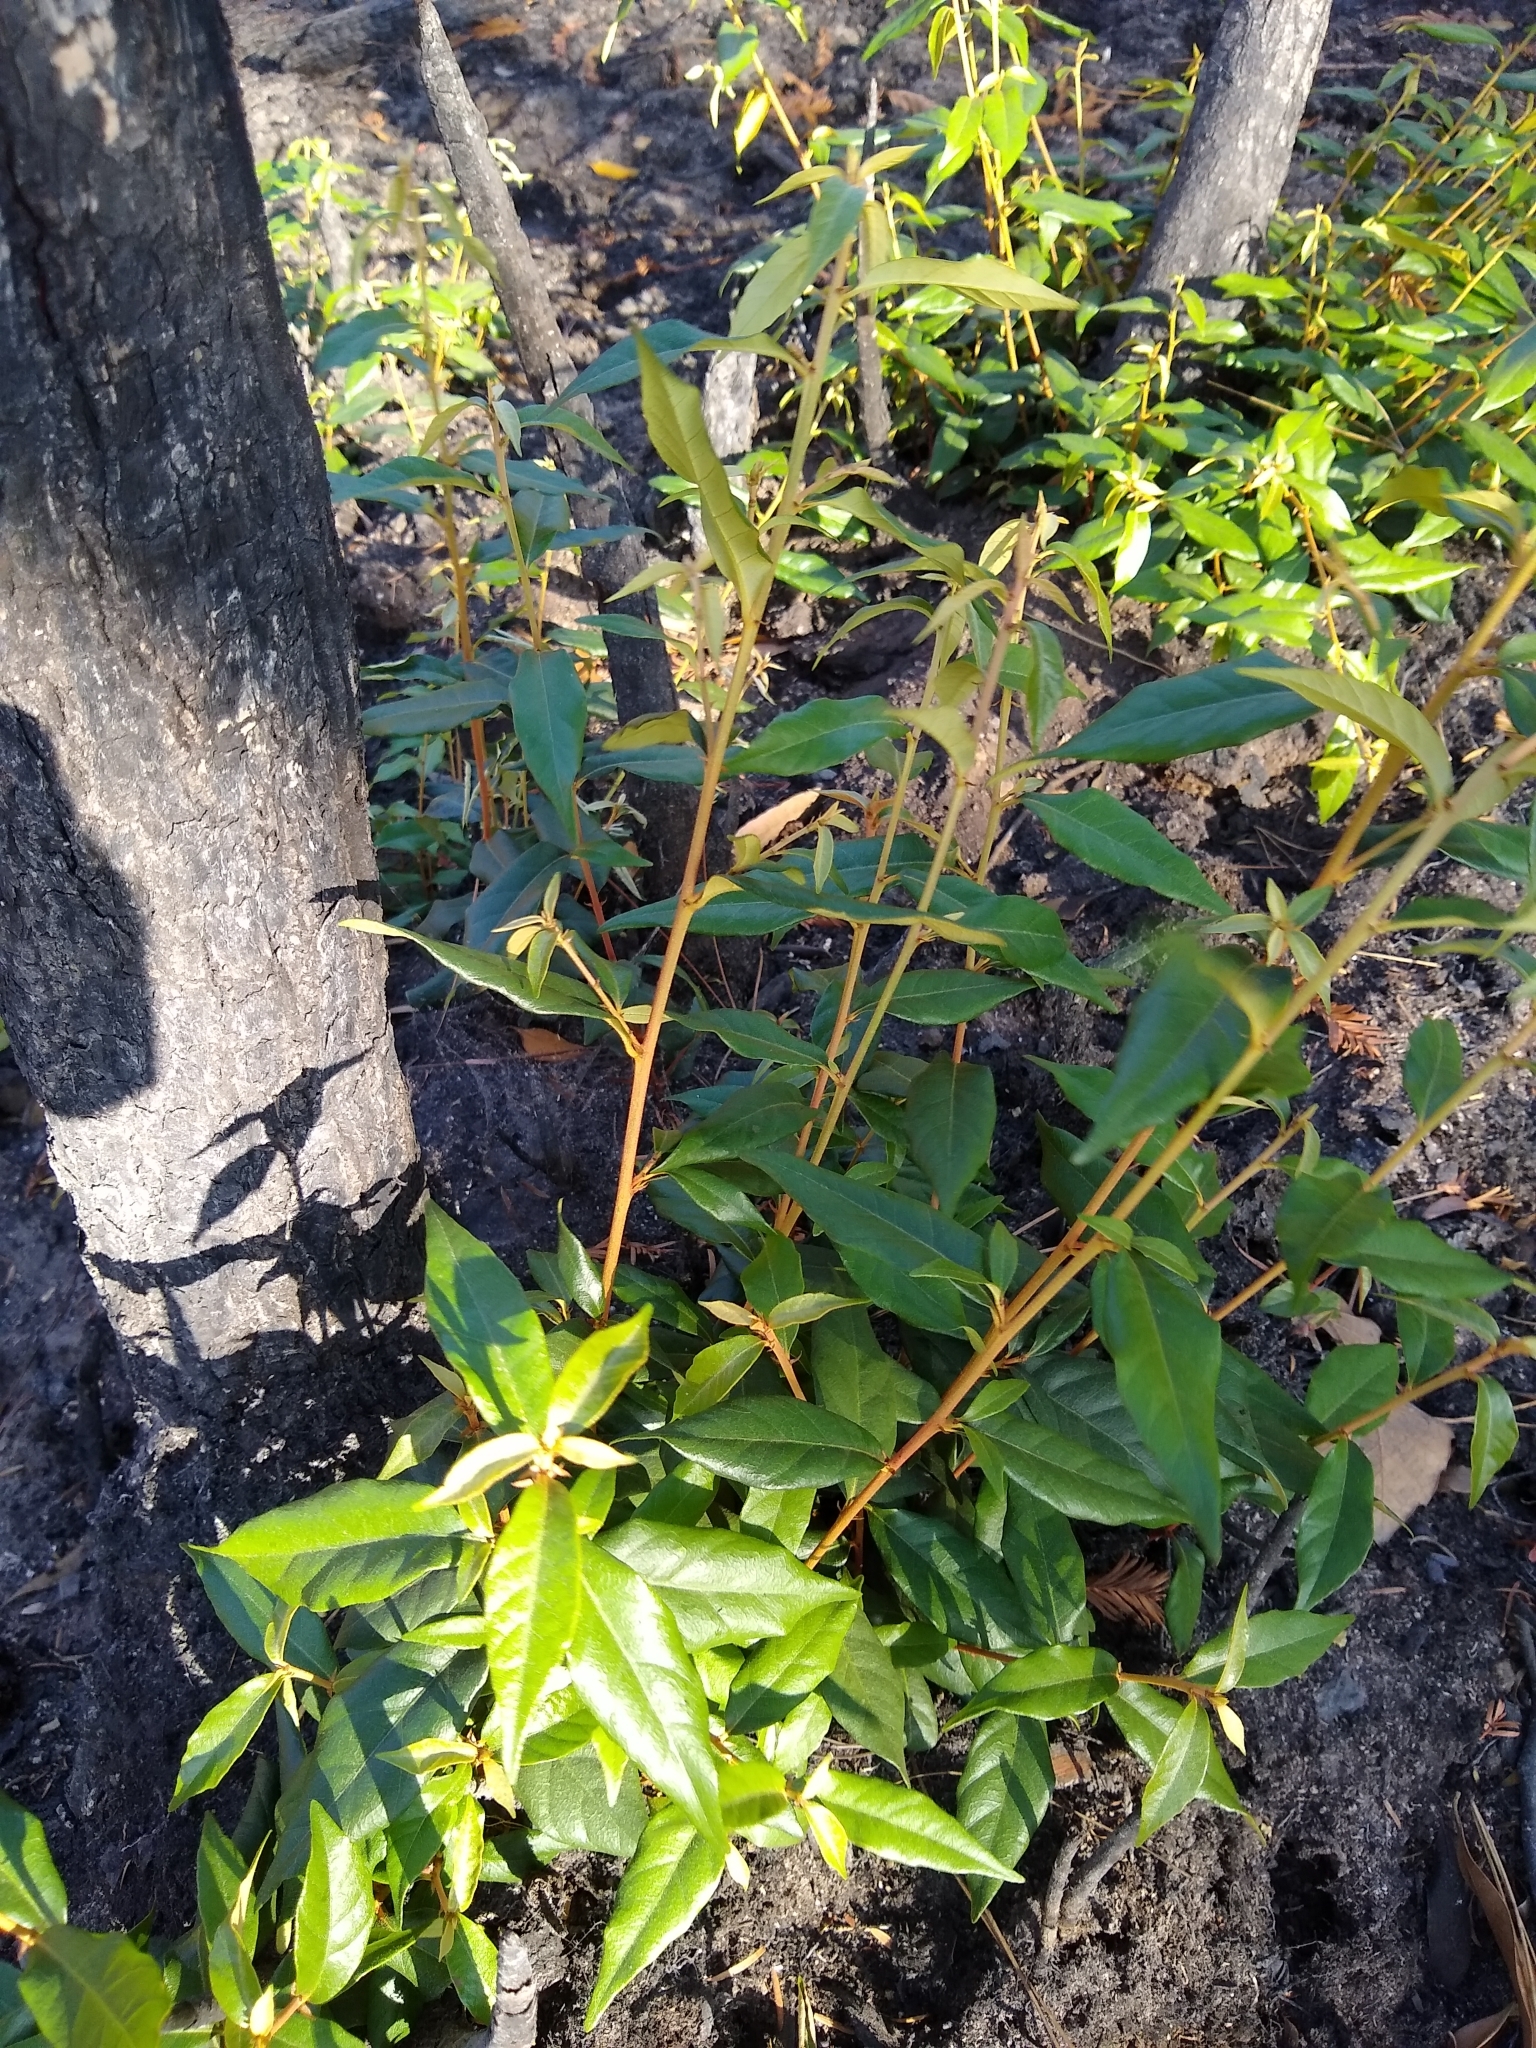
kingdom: Plantae
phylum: Tracheophyta
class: Magnoliopsida
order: Fagales
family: Fagaceae
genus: Chrysolepis
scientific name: Chrysolepis chrysophylla
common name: Giant chinquapin
